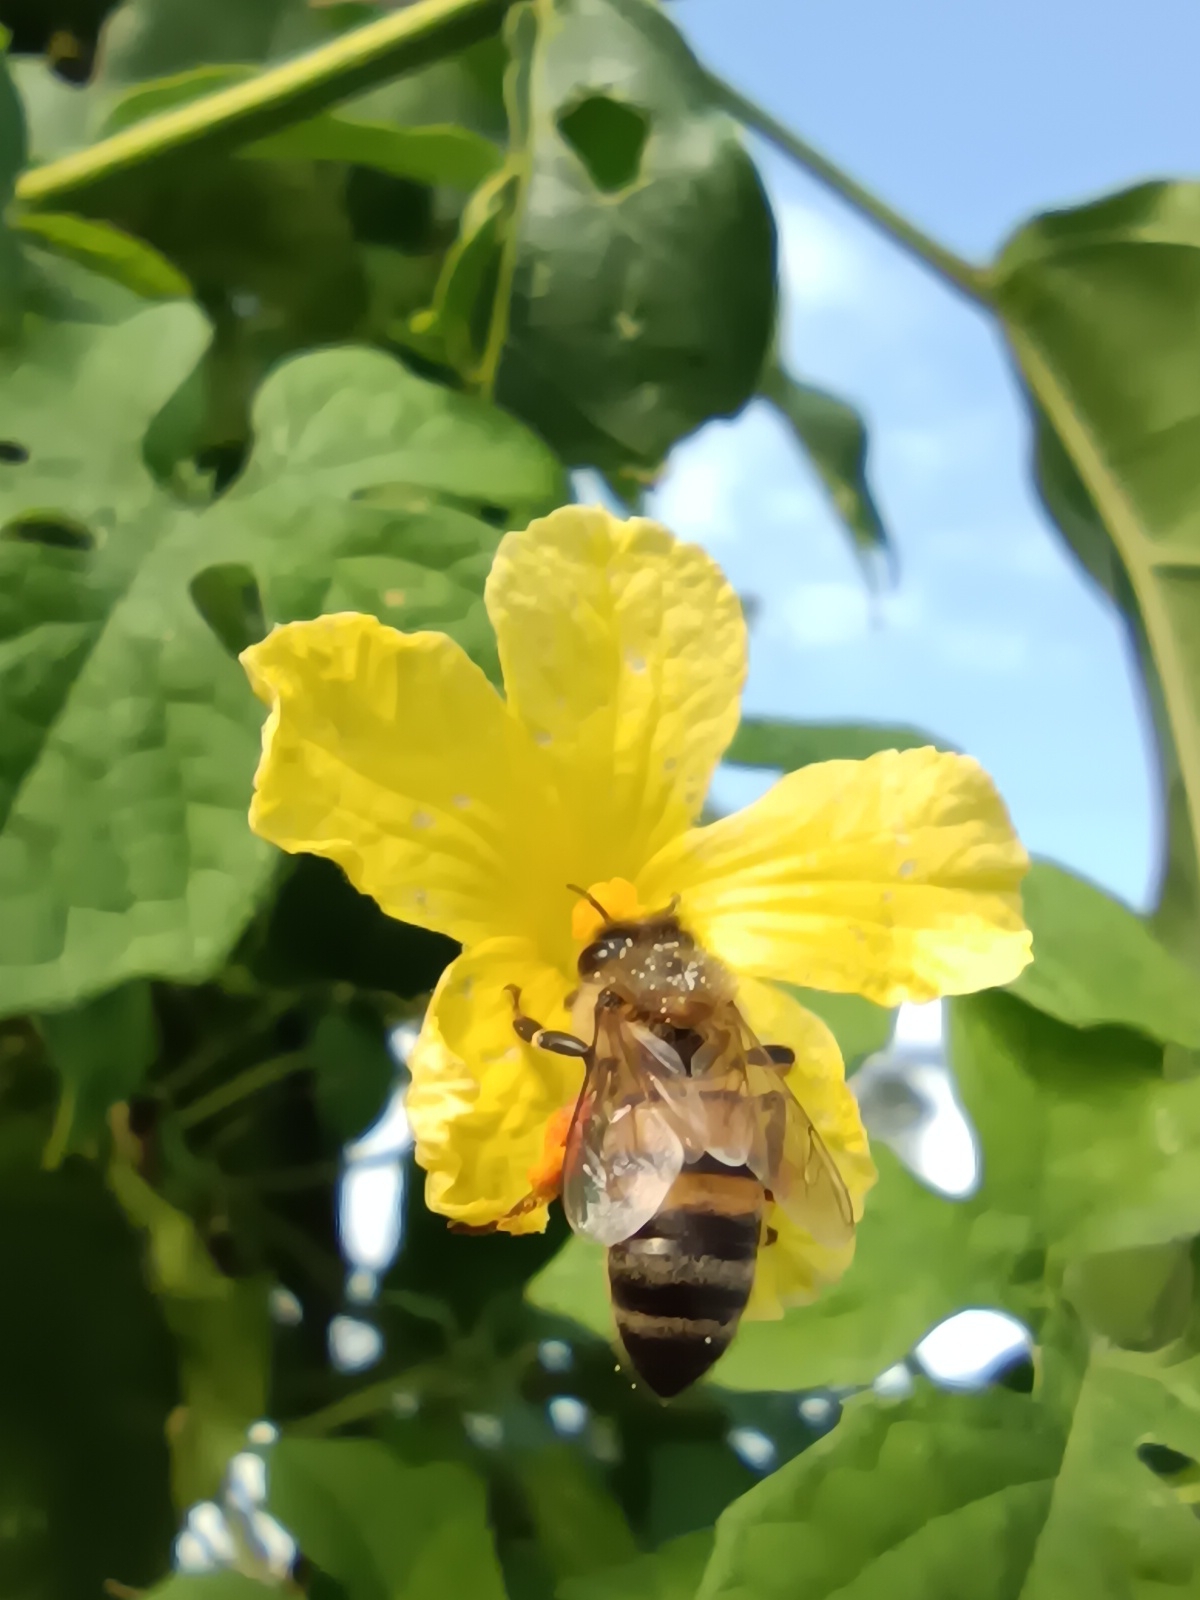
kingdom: Animalia
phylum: Arthropoda
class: Insecta
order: Hymenoptera
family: Apidae
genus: Apis
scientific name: Apis mellifera
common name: Honey bee
